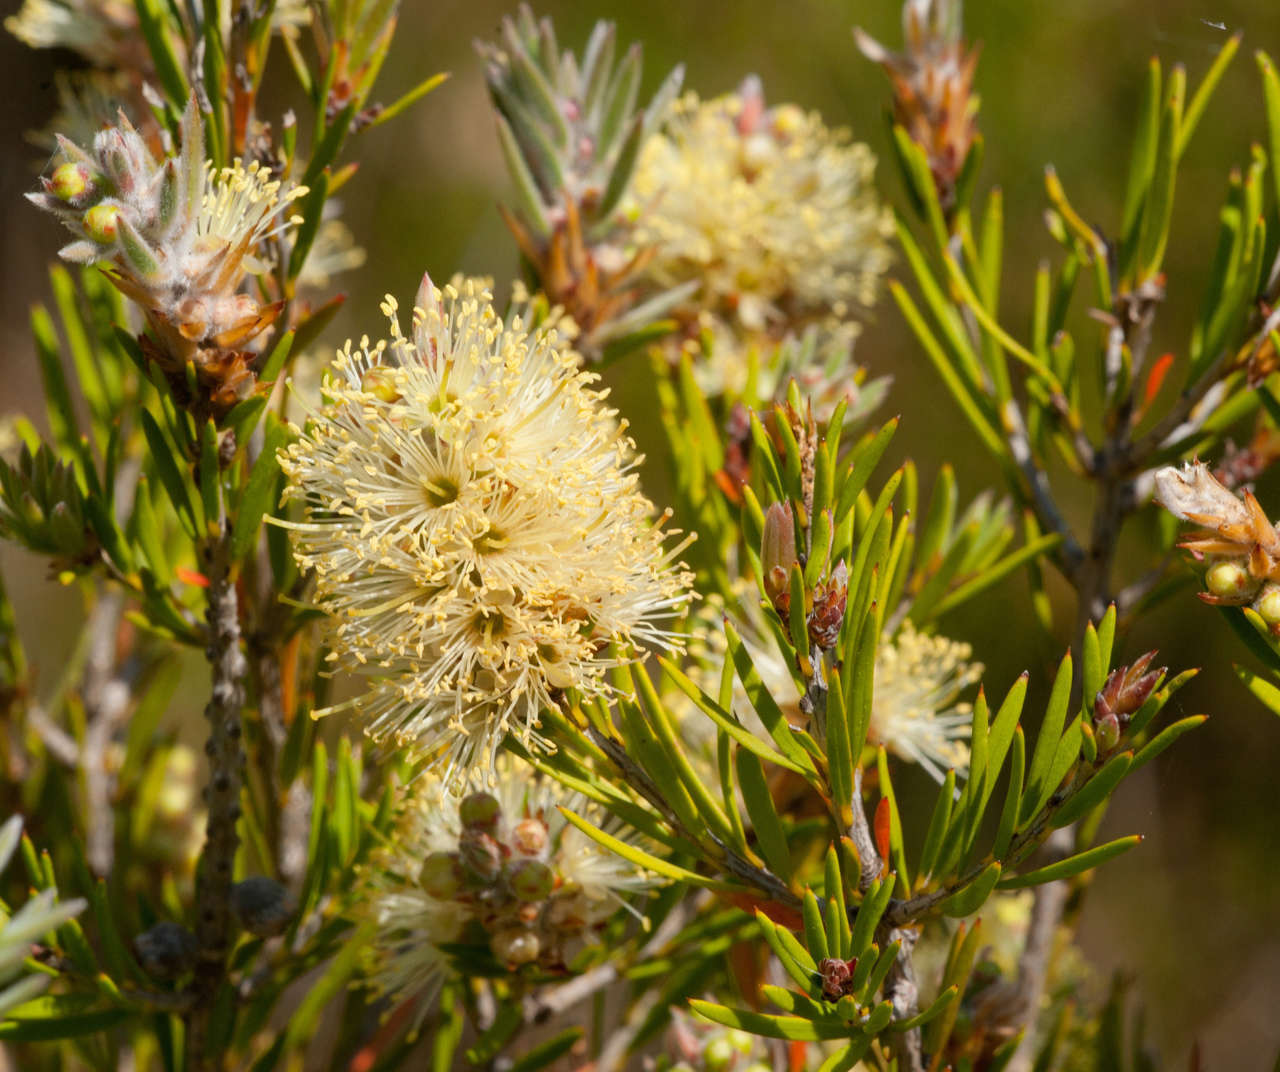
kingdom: Plantae
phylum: Tracheophyta
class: Magnoliopsida
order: Myrtales
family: Myrtaceae
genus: Callistemon
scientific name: Callistemon pityoides
